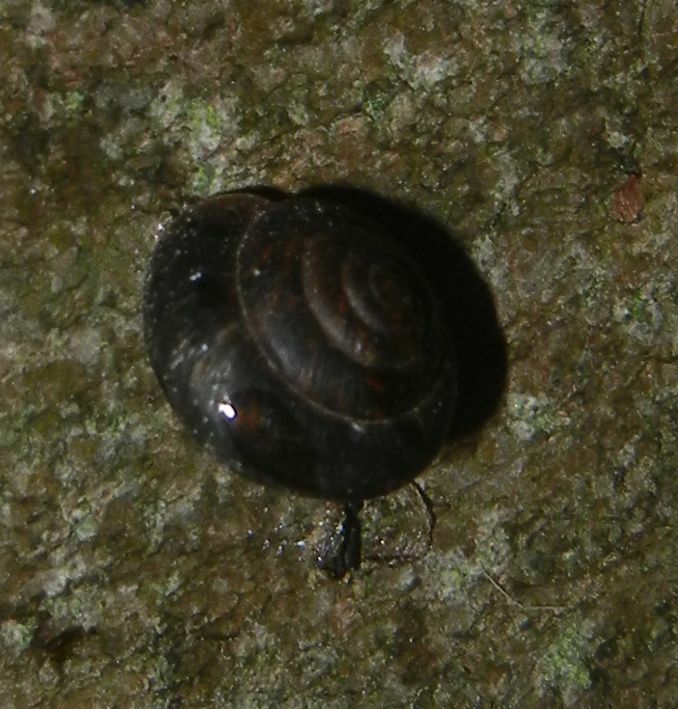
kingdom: Animalia
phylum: Mollusca
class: Gastropoda
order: Stylommatophora
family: Hygromiidae
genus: Trochulus
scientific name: Trochulus striolatus
